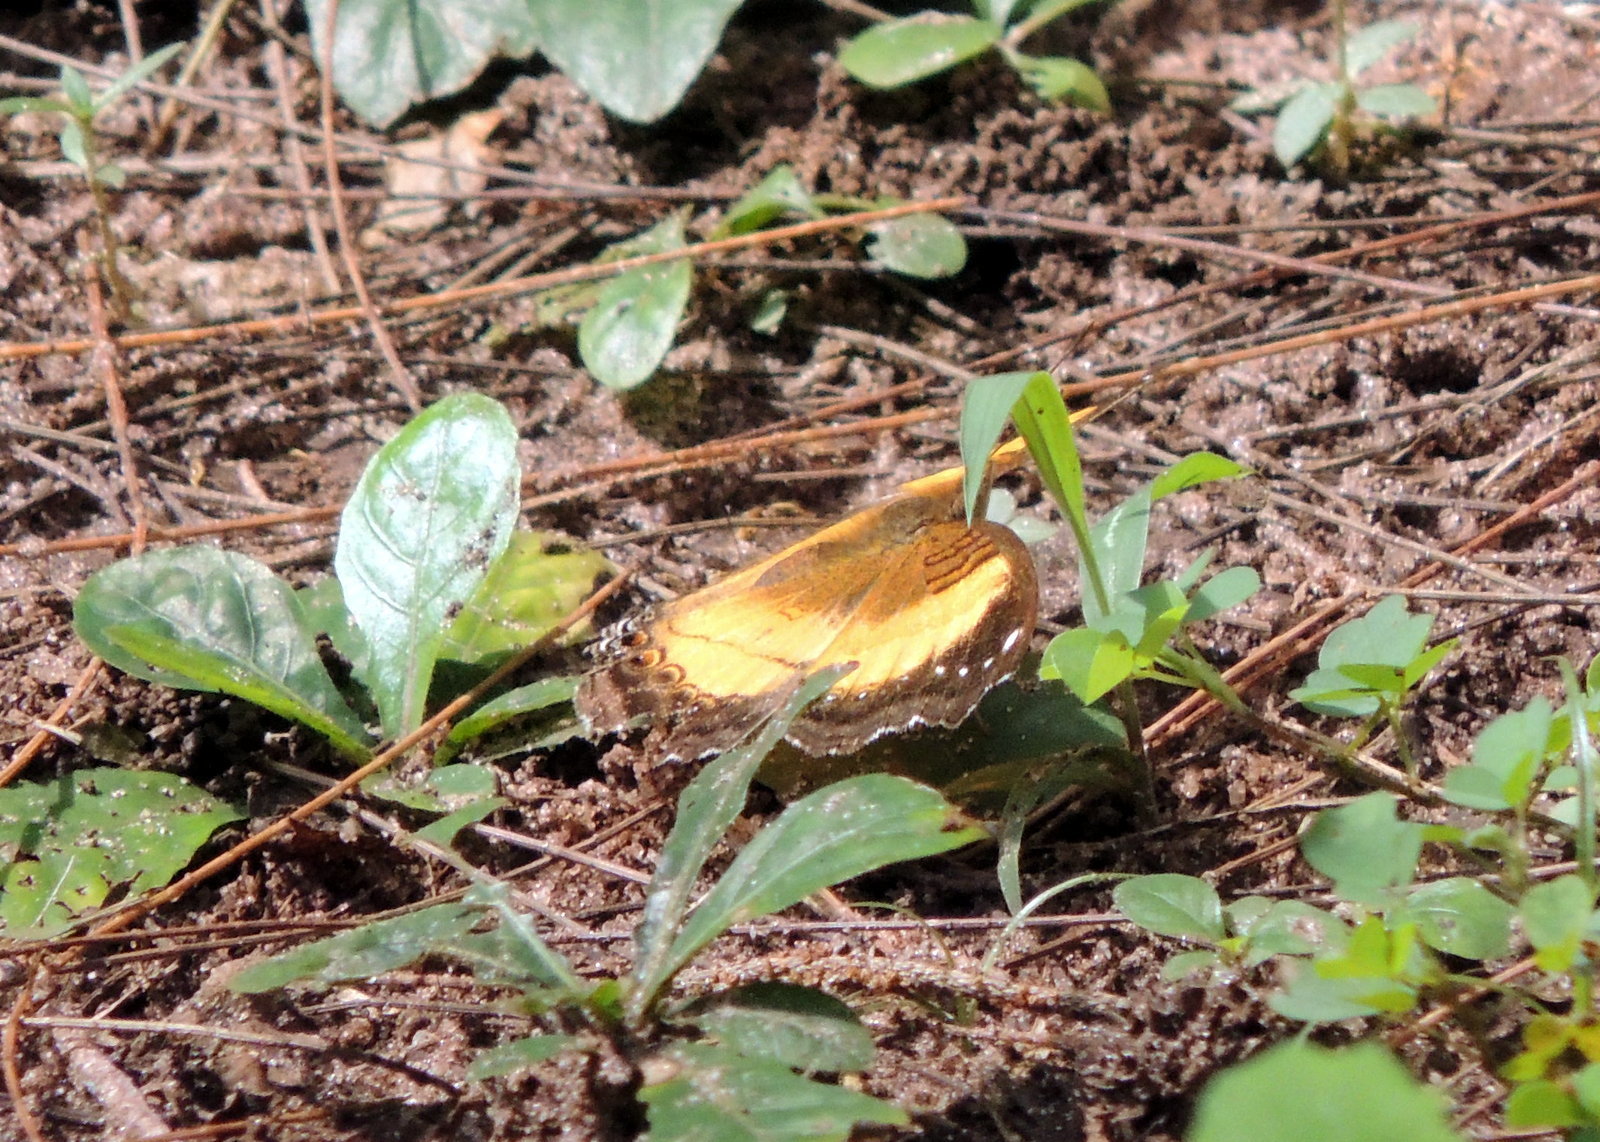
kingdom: Animalia
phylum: Arthropoda
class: Insecta
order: Lepidoptera
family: Nymphalidae
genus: Junonia
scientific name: Junonia terea
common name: Soldier pansy
